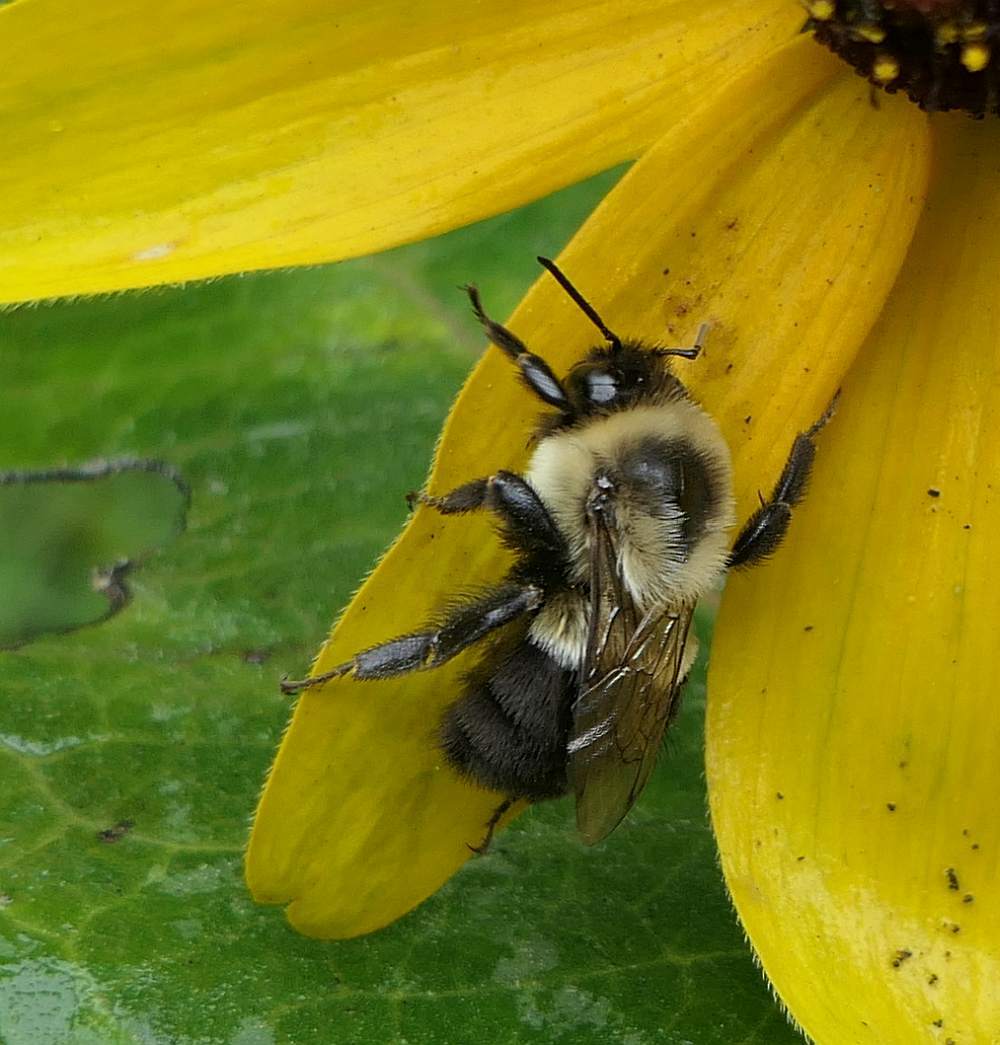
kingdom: Animalia
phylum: Arthropoda
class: Insecta
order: Hymenoptera
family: Apidae
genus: Bombus
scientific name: Bombus impatiens
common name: Common eastern bumble bee
